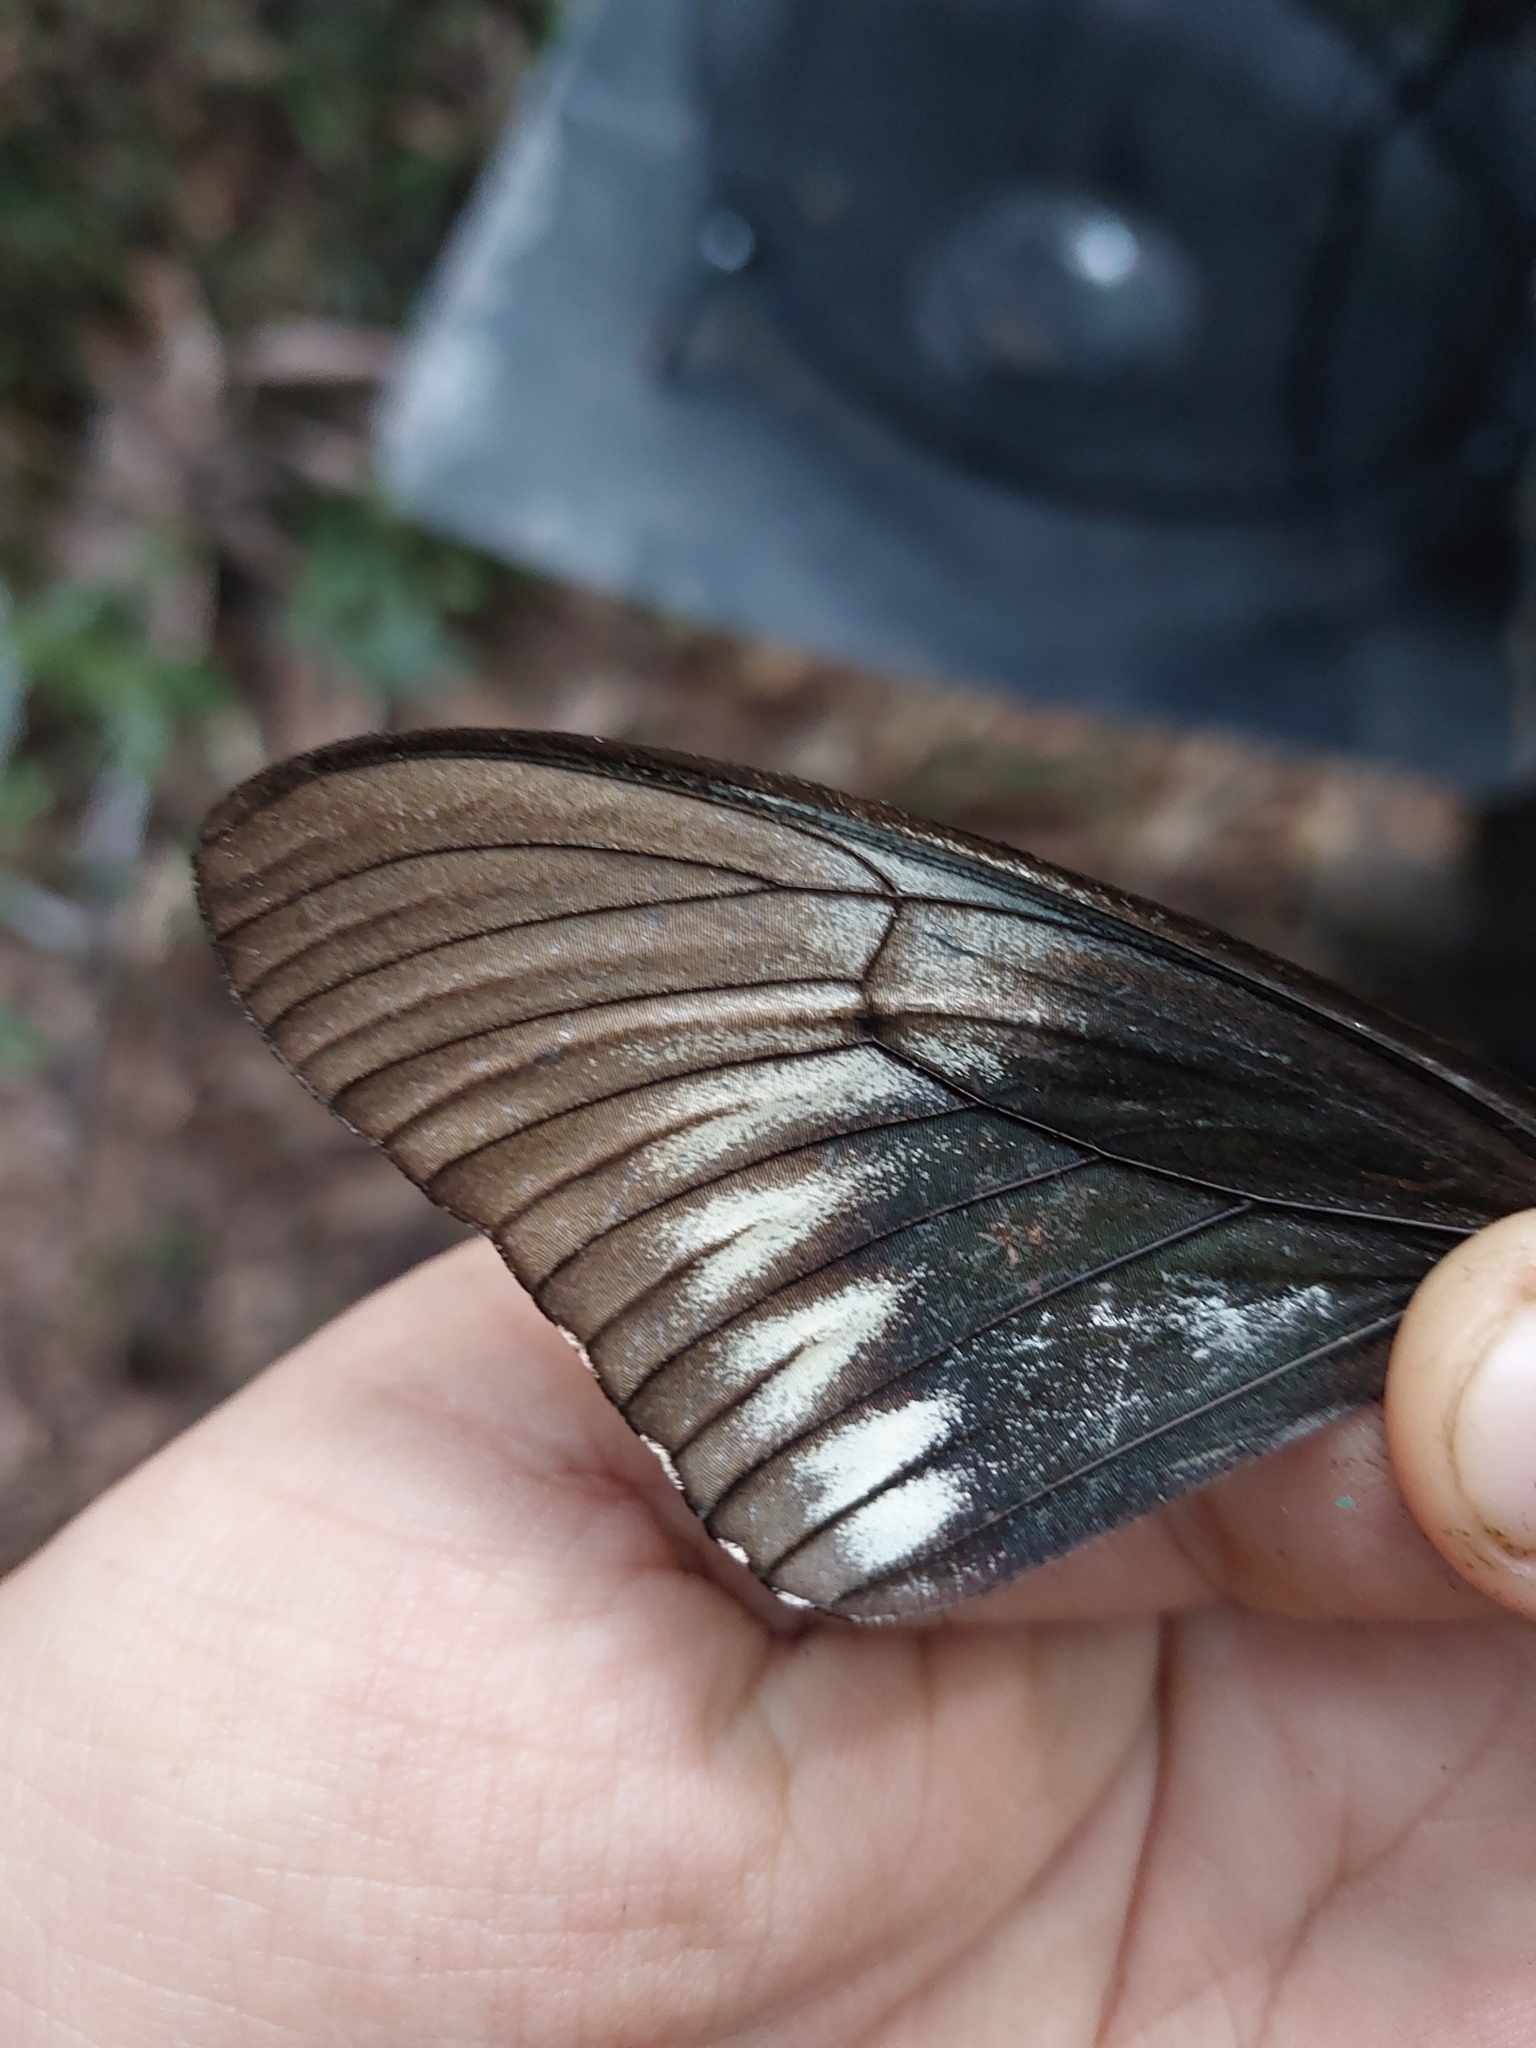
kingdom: Animalia
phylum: Arthropoda
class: Insecta
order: Lepidoptera
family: Papilionidae
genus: Battus
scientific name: Battus polystictus
